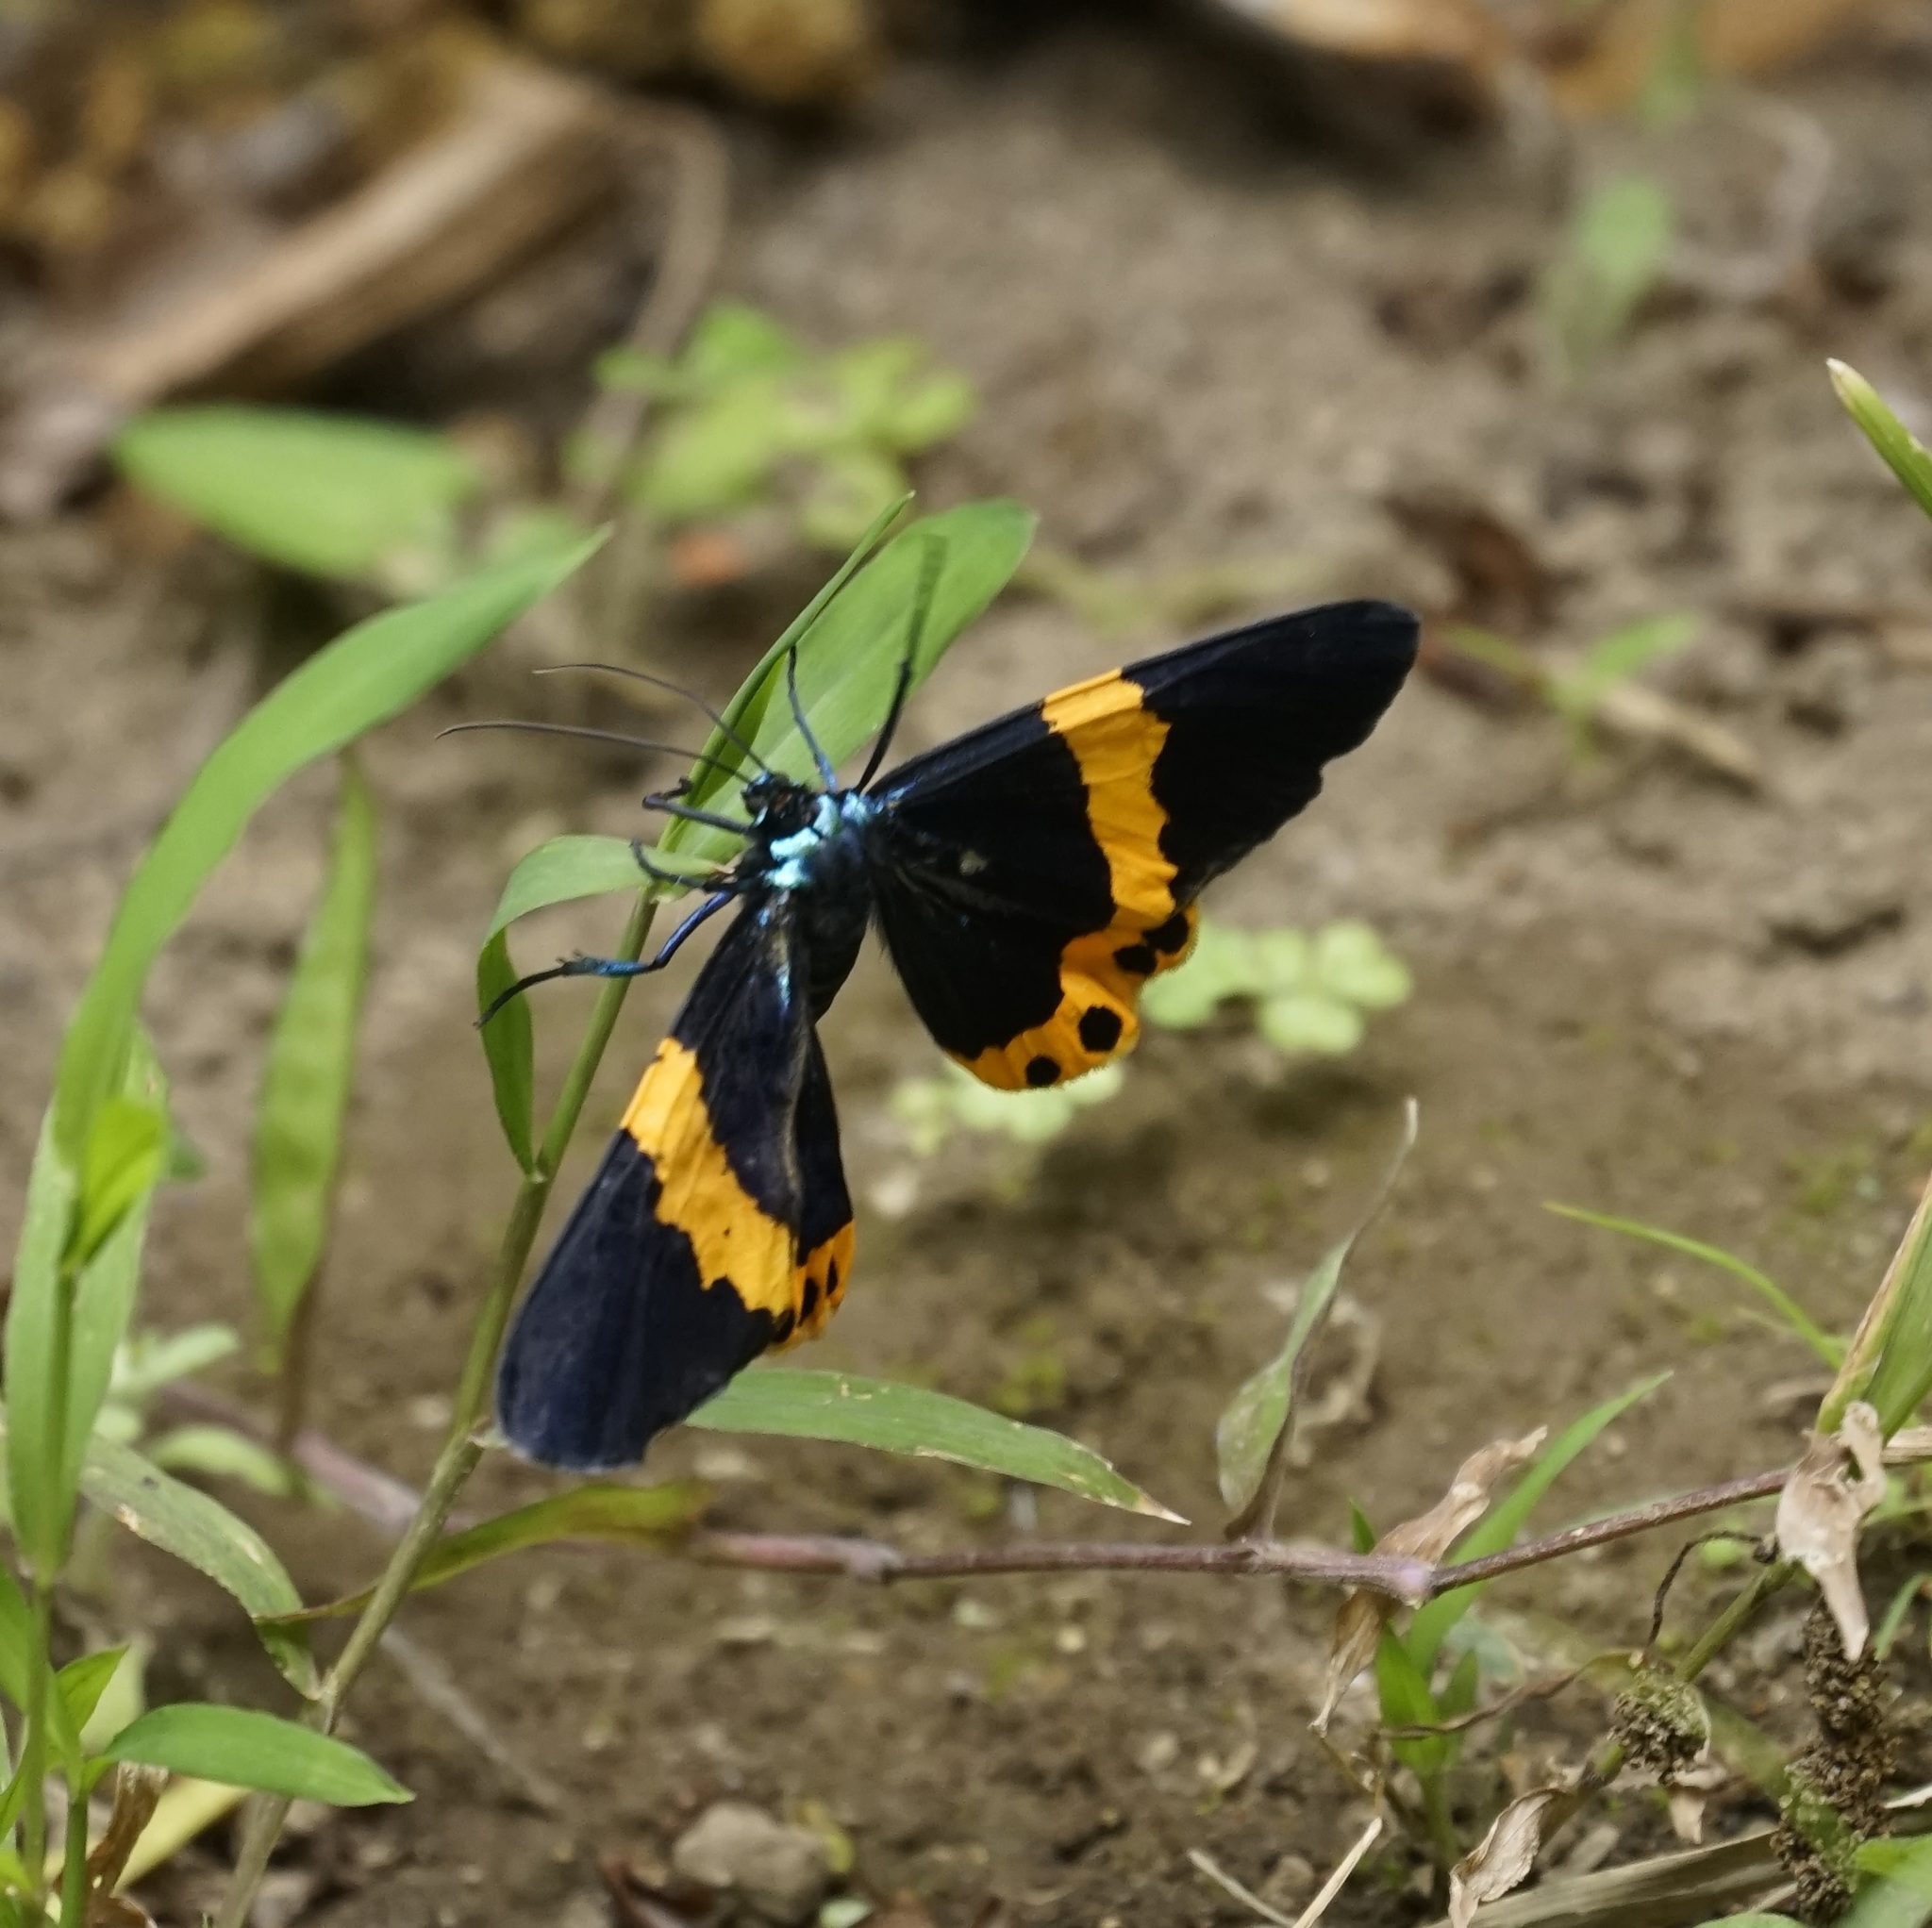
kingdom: Animalia
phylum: Arthropoda
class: Insecta
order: Lepidoptera
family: Geometridae
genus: Milionia
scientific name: Milionia basalis
